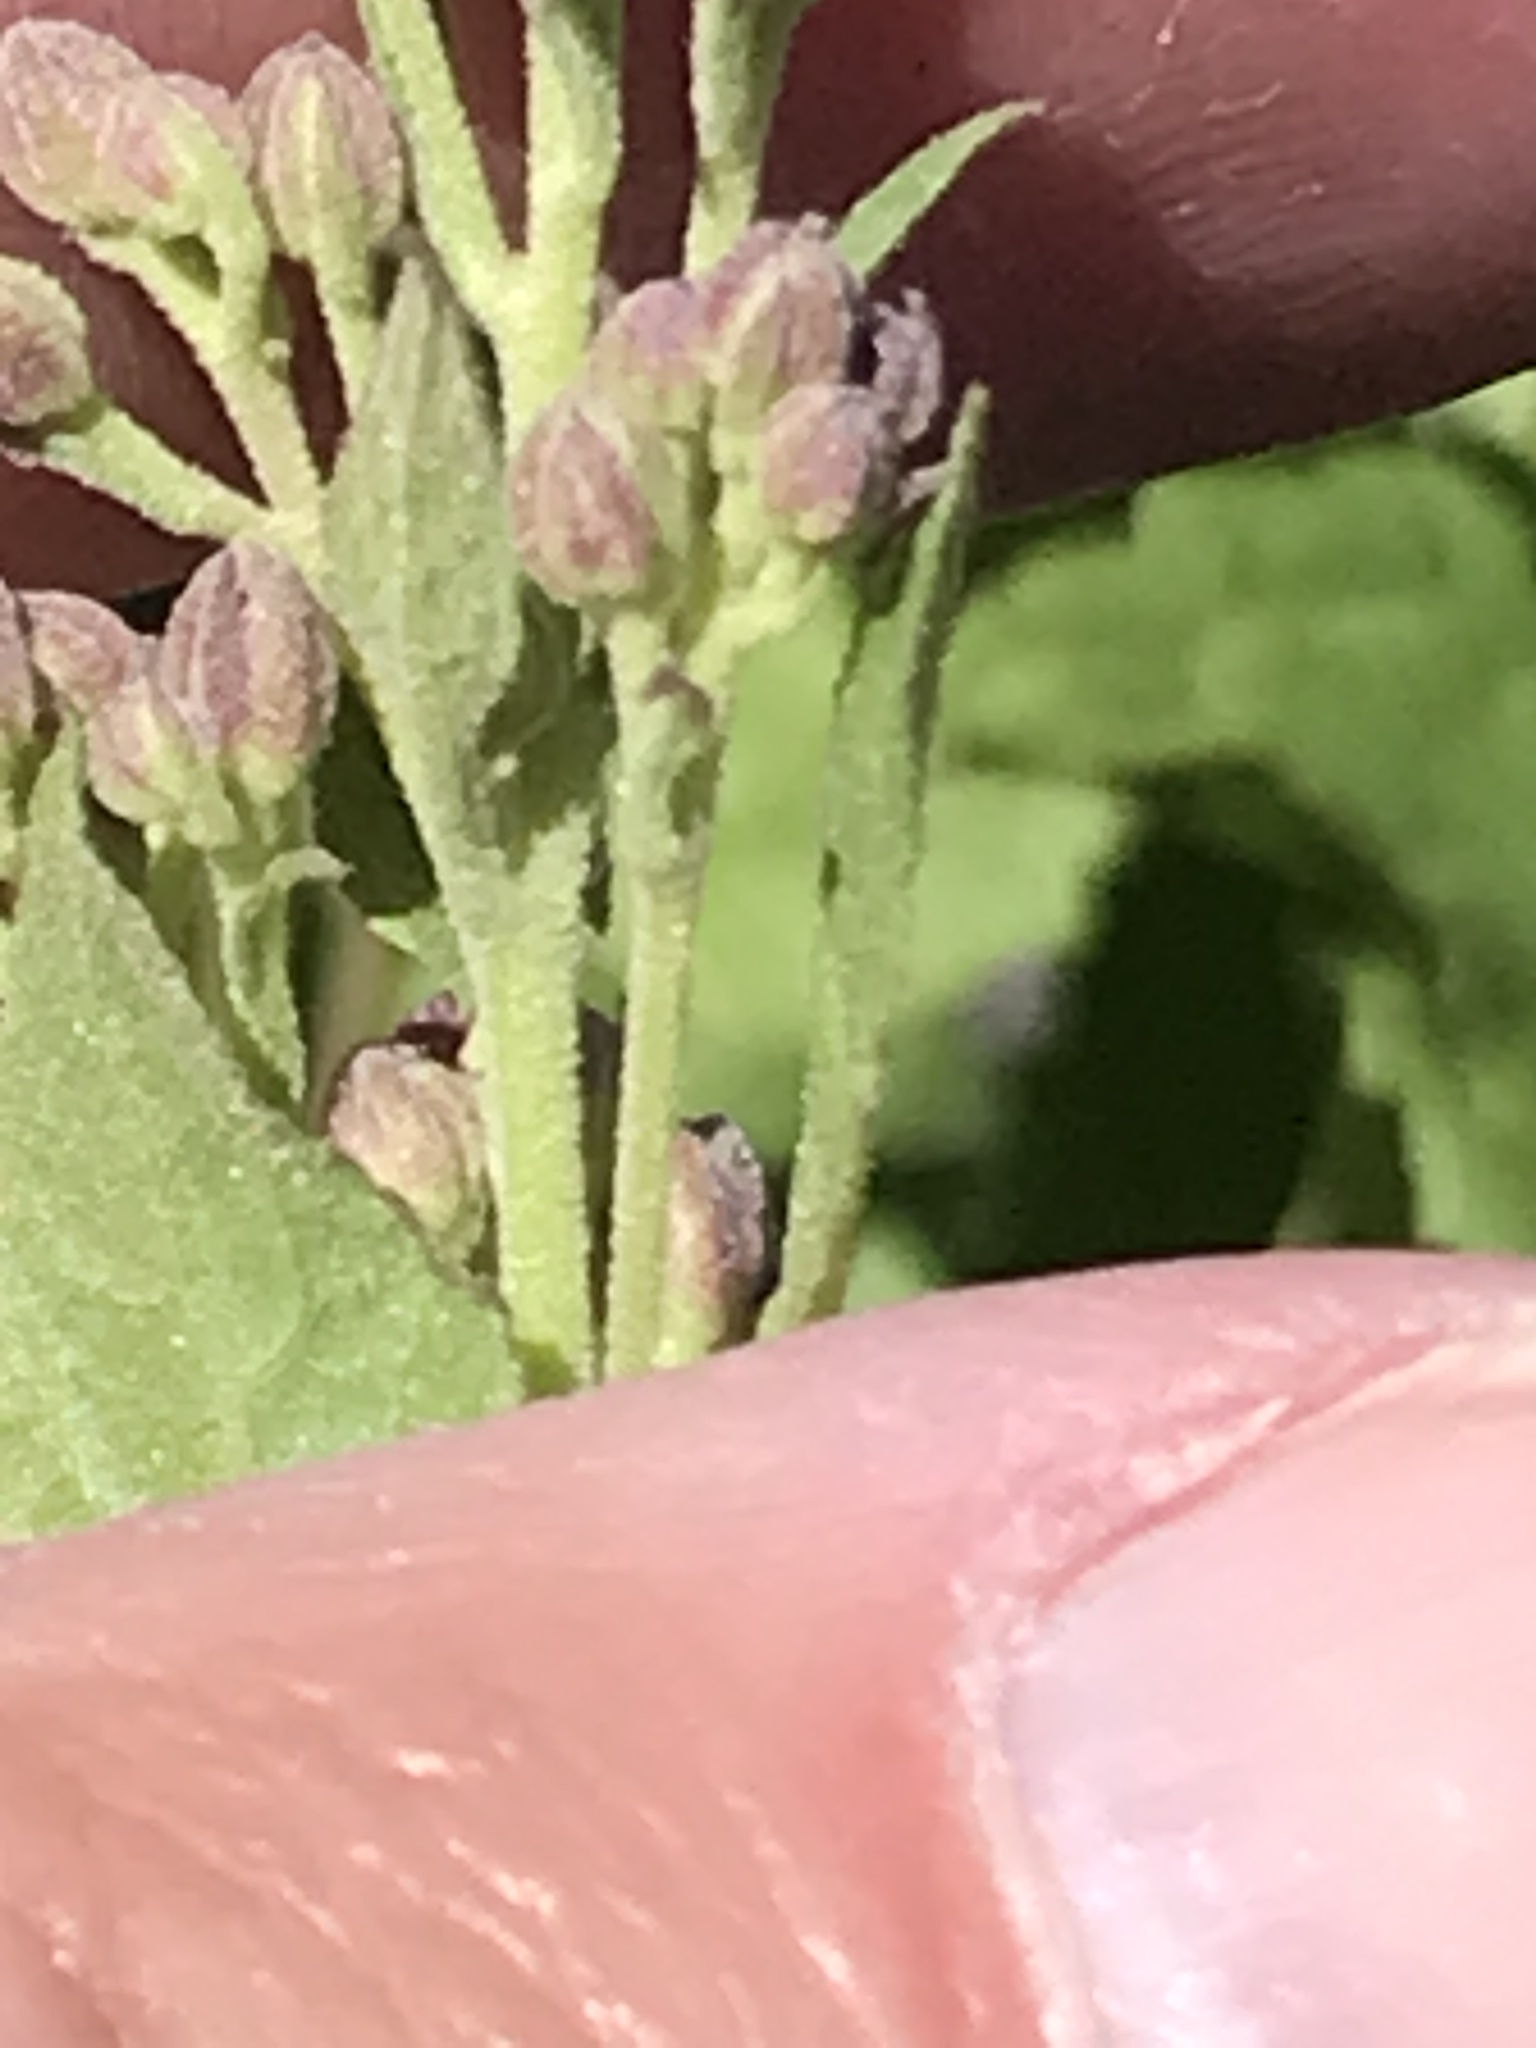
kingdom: Plantae
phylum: Tracheophyta
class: Magnoliopsida
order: Asterales
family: Asteraceae
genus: Ageratina
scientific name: Ageratina occidentalis
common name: Western snakeroot
